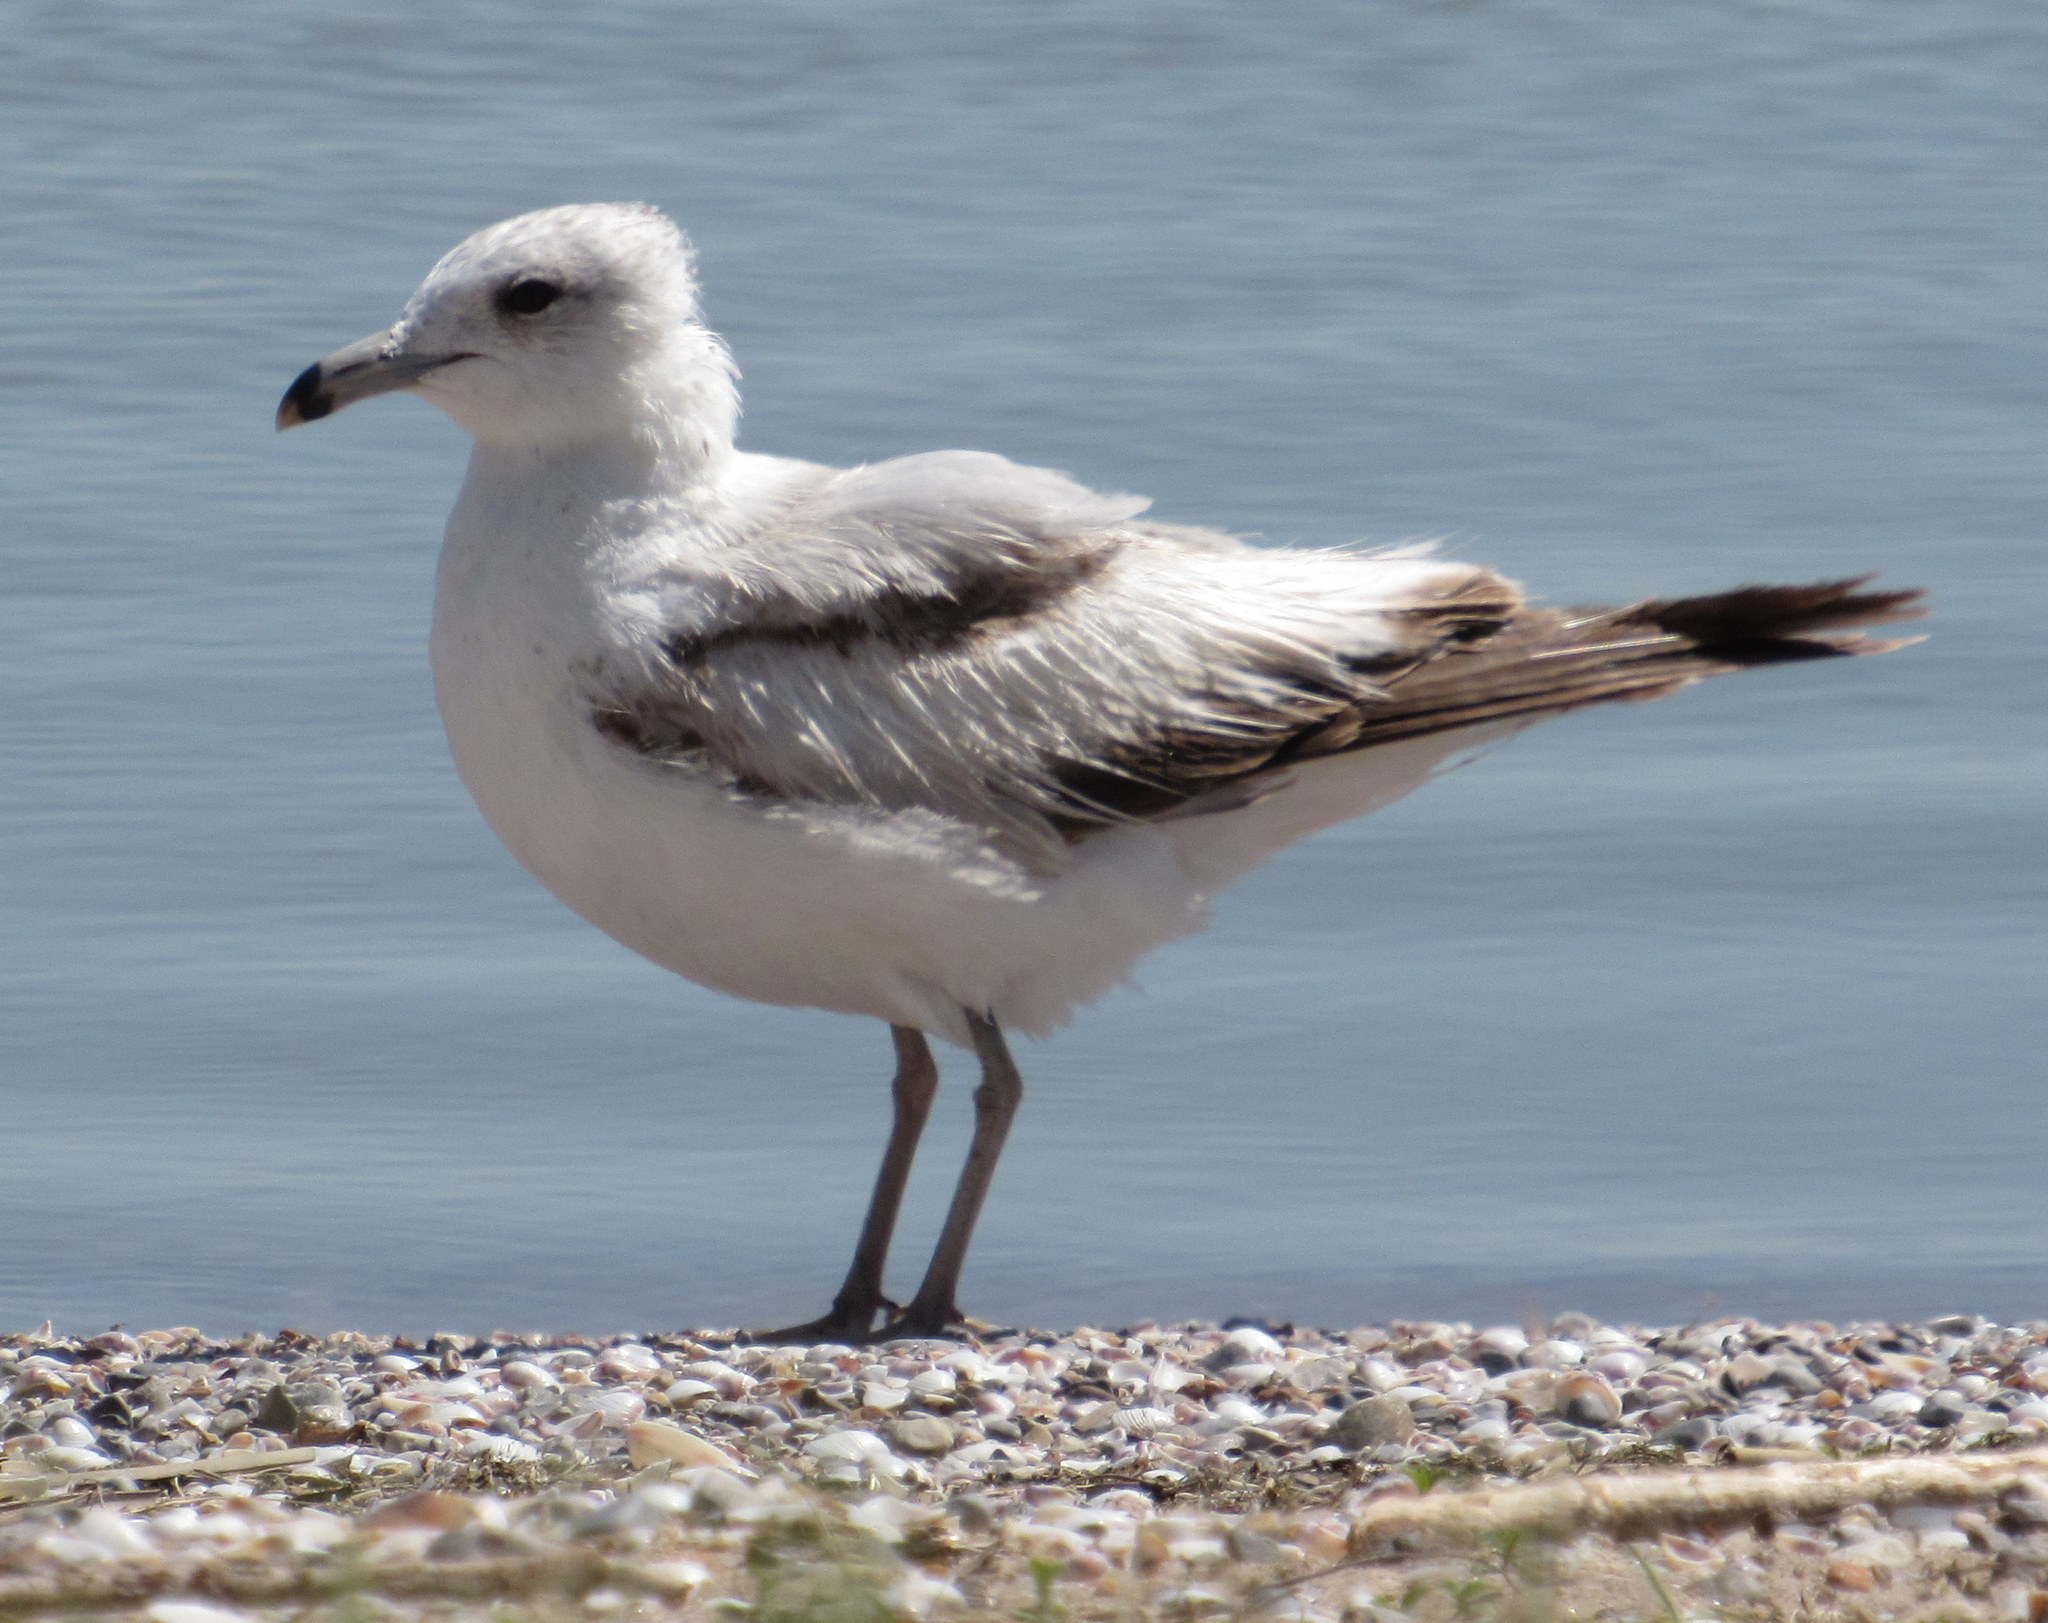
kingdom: Animalia
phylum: Chordata
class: Aves
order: Charadriiformes
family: Laridae
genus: Larus
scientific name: Larus delawarensis
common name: Ring-billed gull
